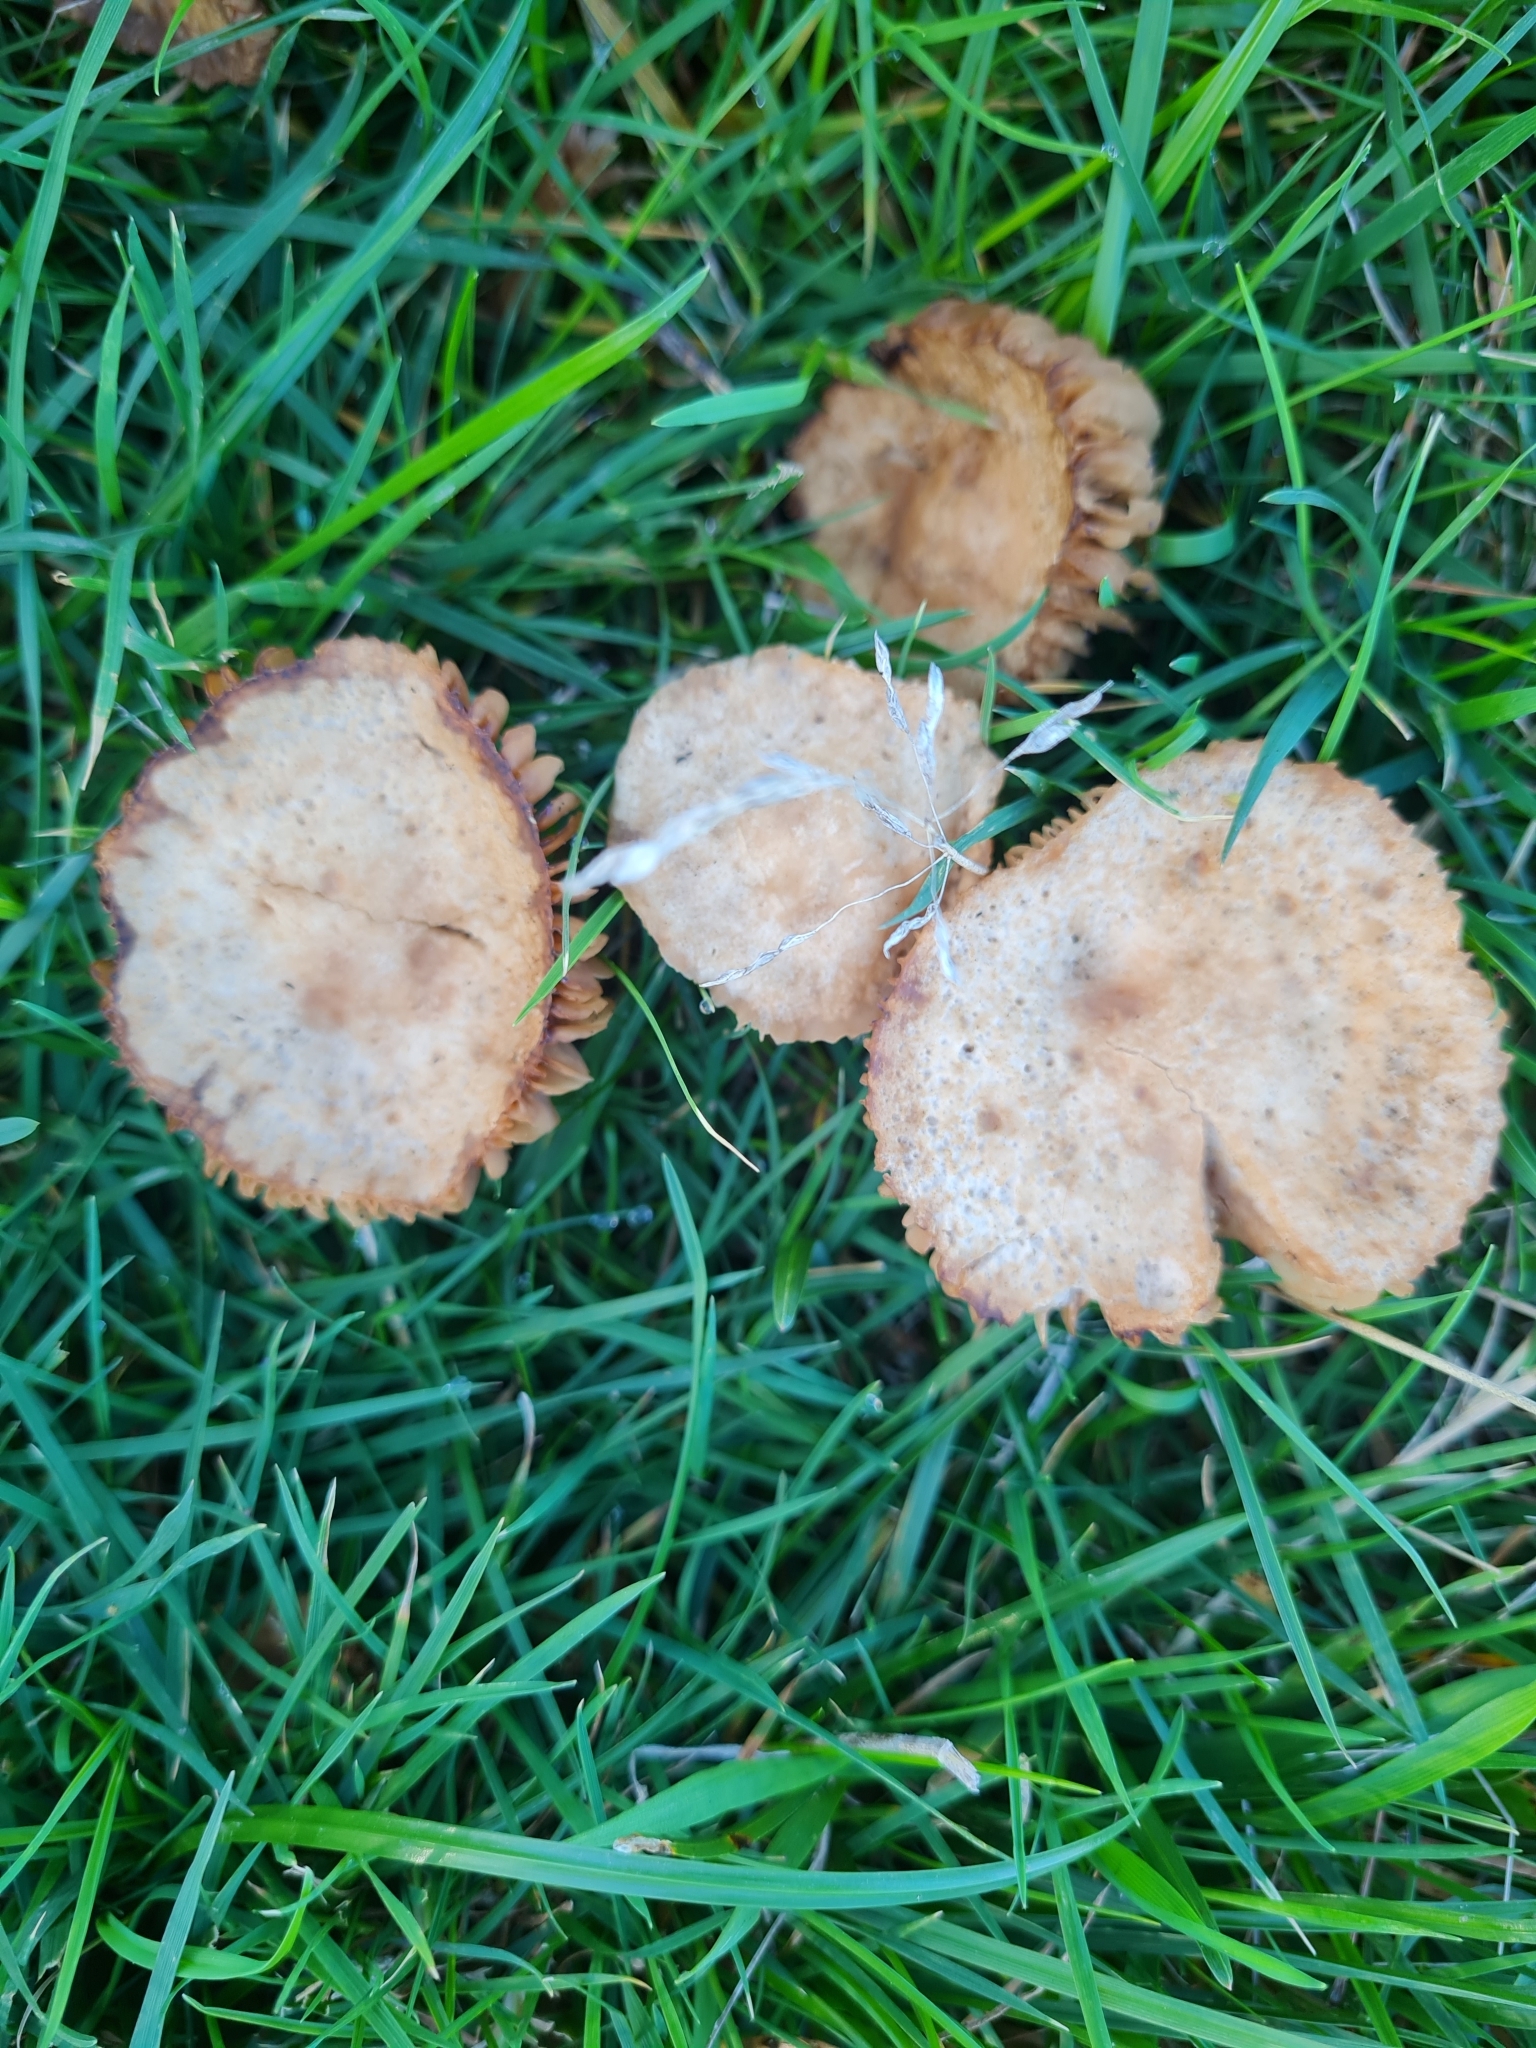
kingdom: Fungi
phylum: Basidiomycota
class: Agaricomycetes
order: Agaricales
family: Marasmiaceae
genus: Marasmius
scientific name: Marasmius oreades
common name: Fairy ring champignon
